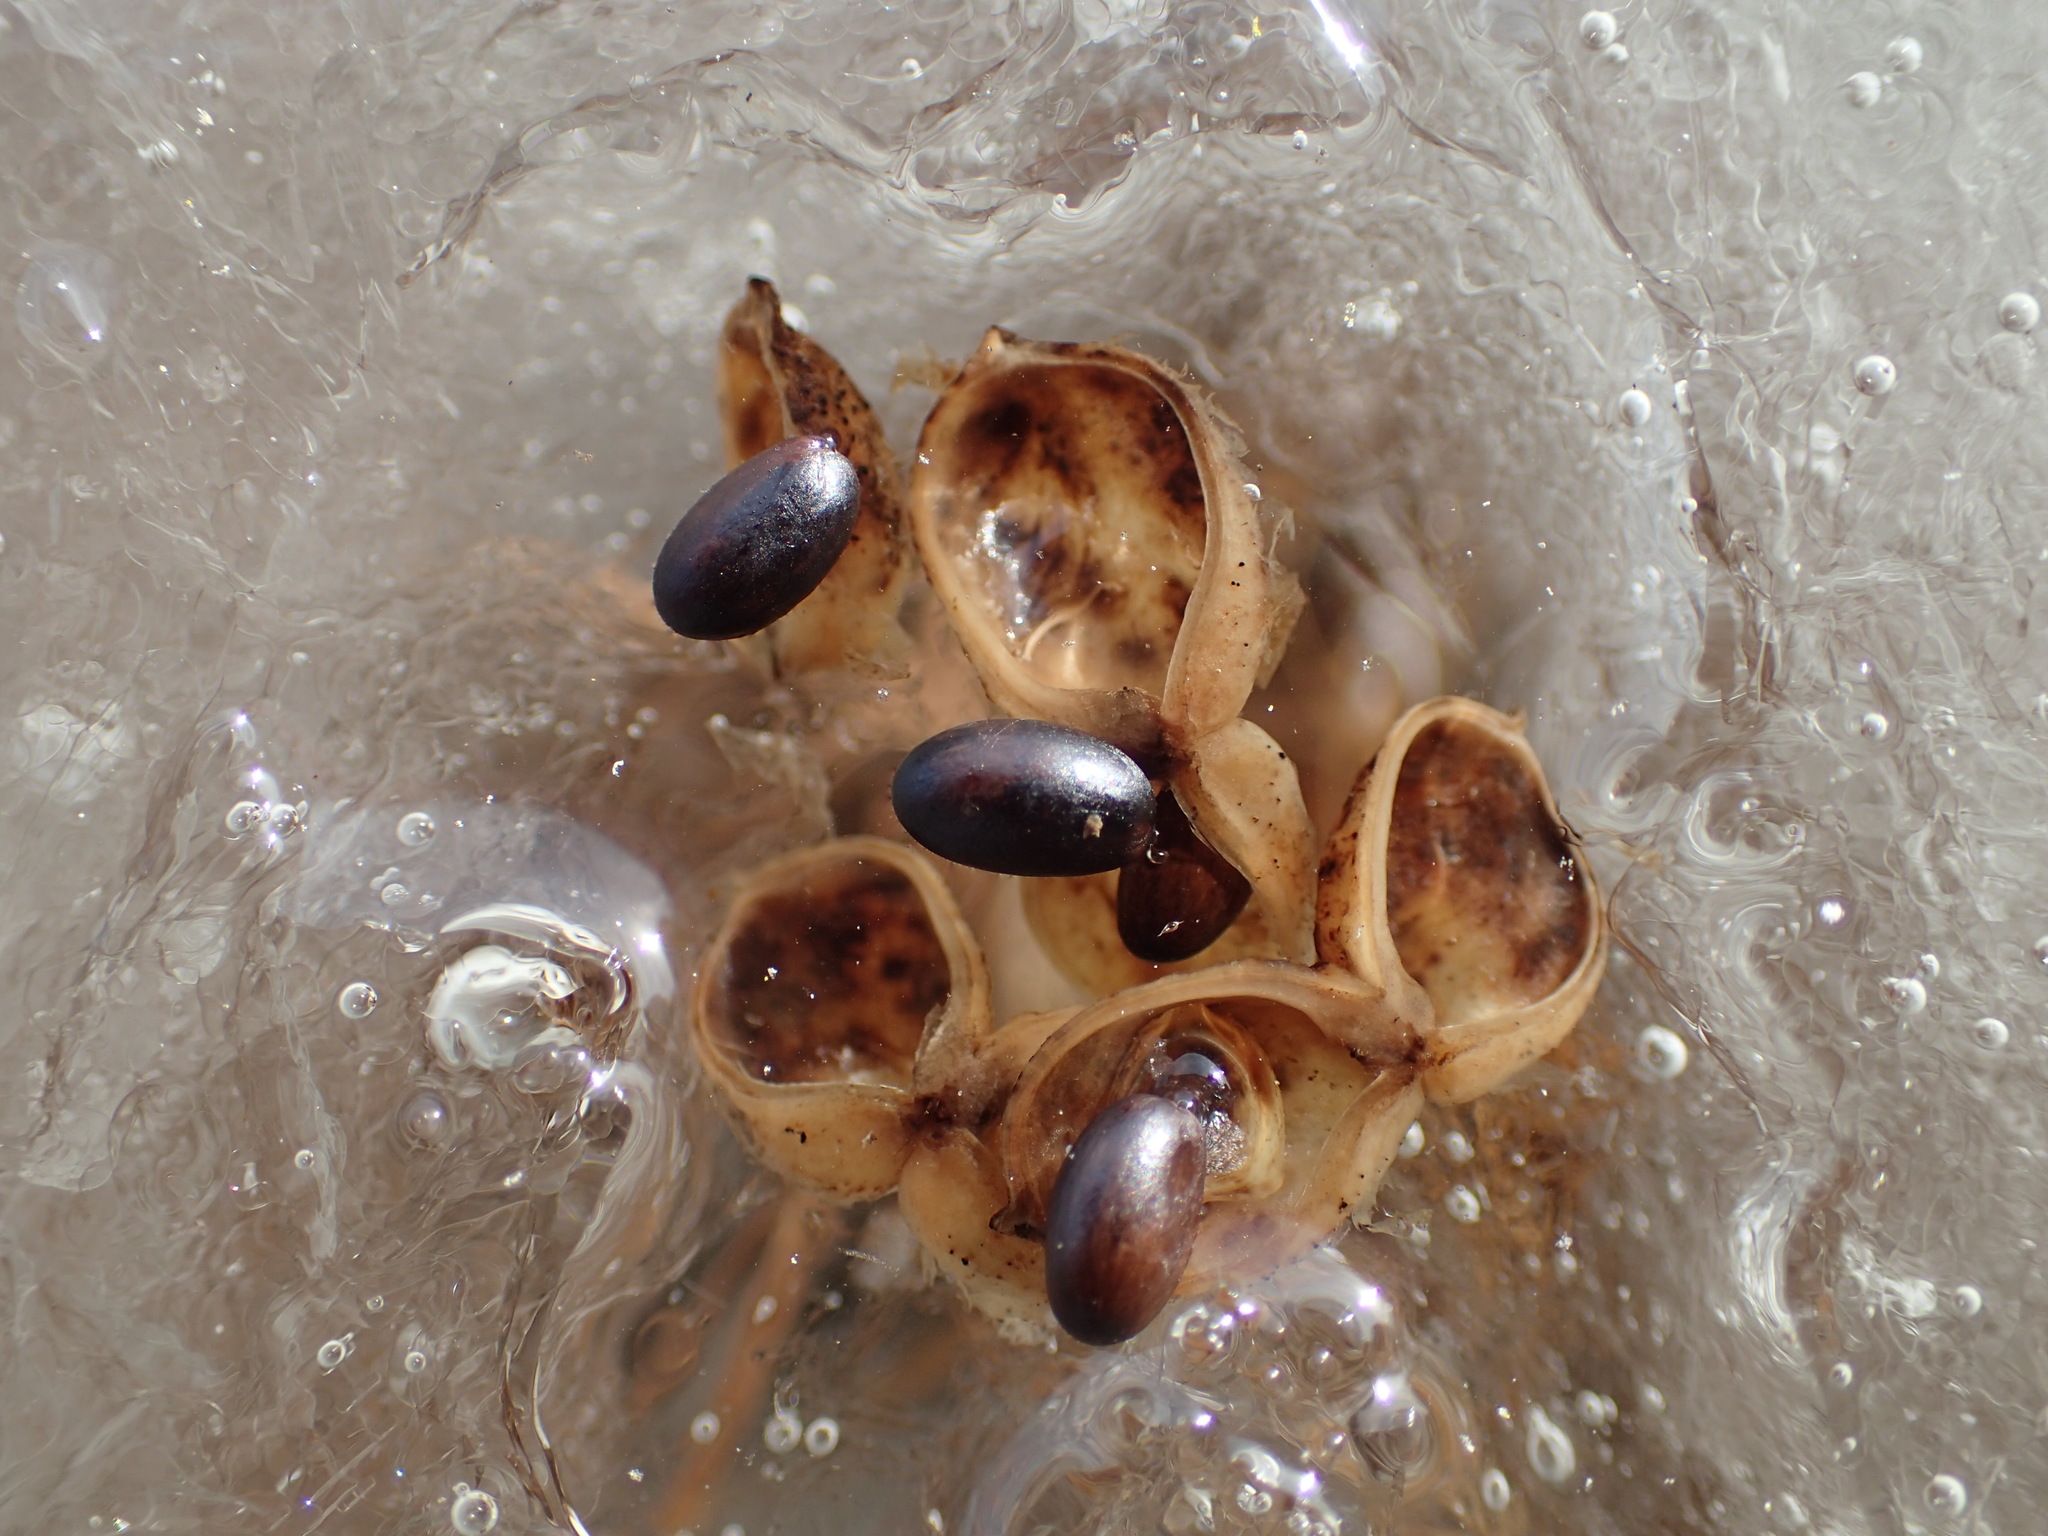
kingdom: Plantae
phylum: Tracheophyta
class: Liliopsida
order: Alismatales
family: Scheuchzeriaceae
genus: Scheuchzeria
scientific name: Scheuchzeria palustris
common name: Rannoch-rush
